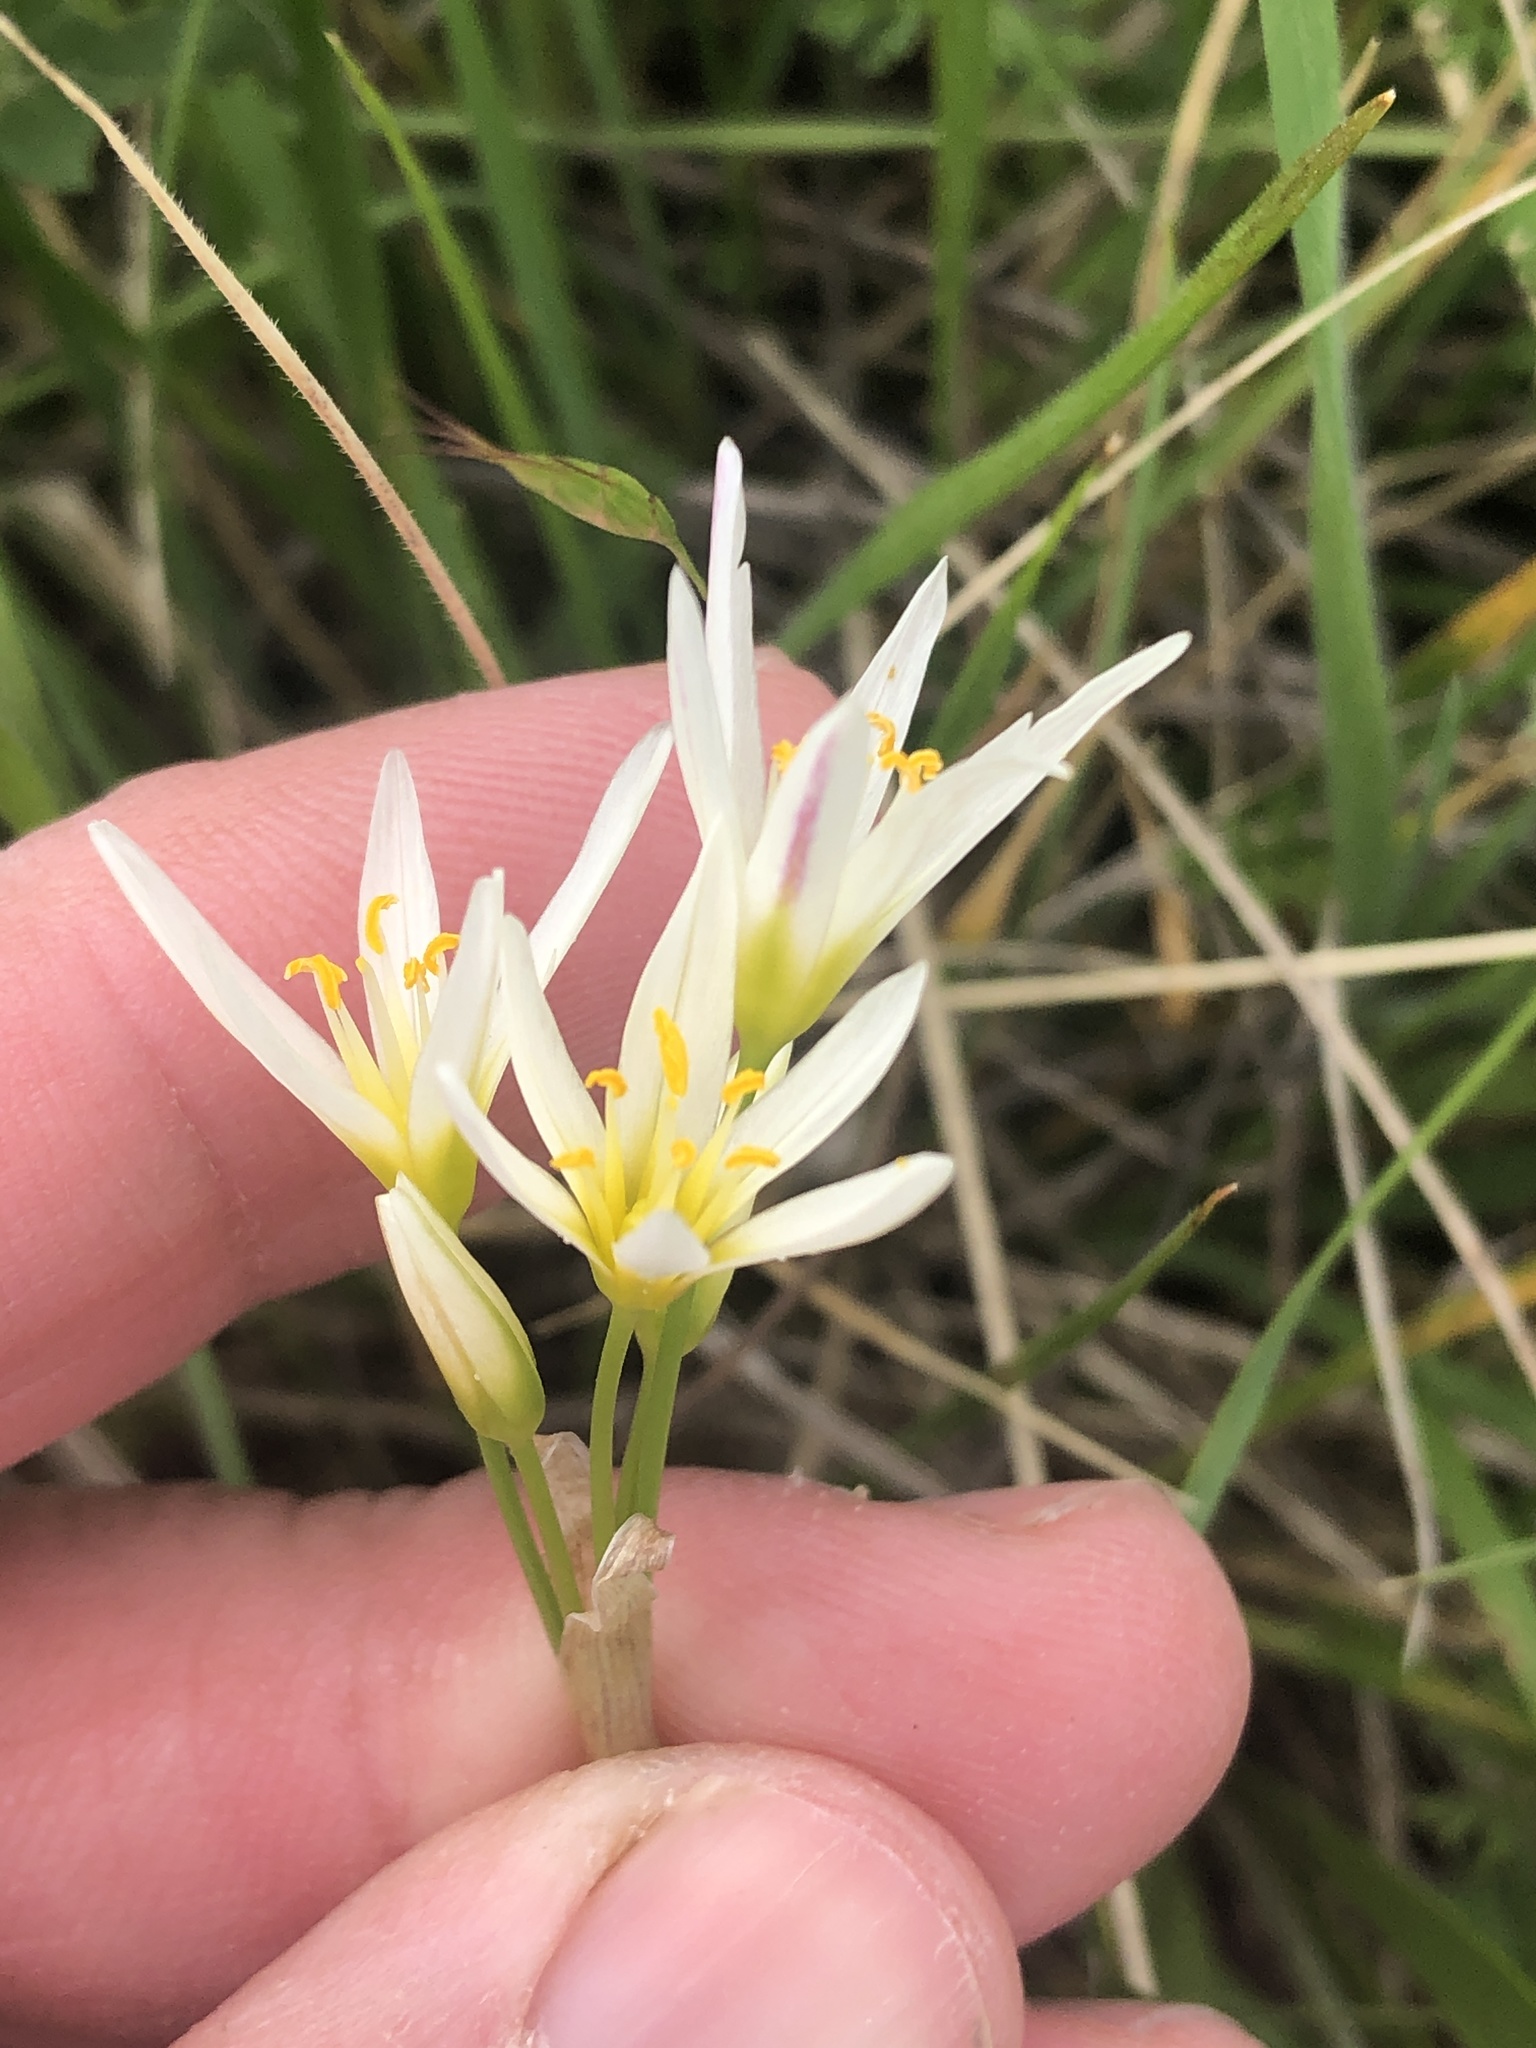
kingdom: Plantae
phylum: Tracheophyta
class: Liliopsida
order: Asparagales
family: Amaryllidaceae
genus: Nothoscordum
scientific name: Nothoscordum bivalve
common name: Crow-poison
